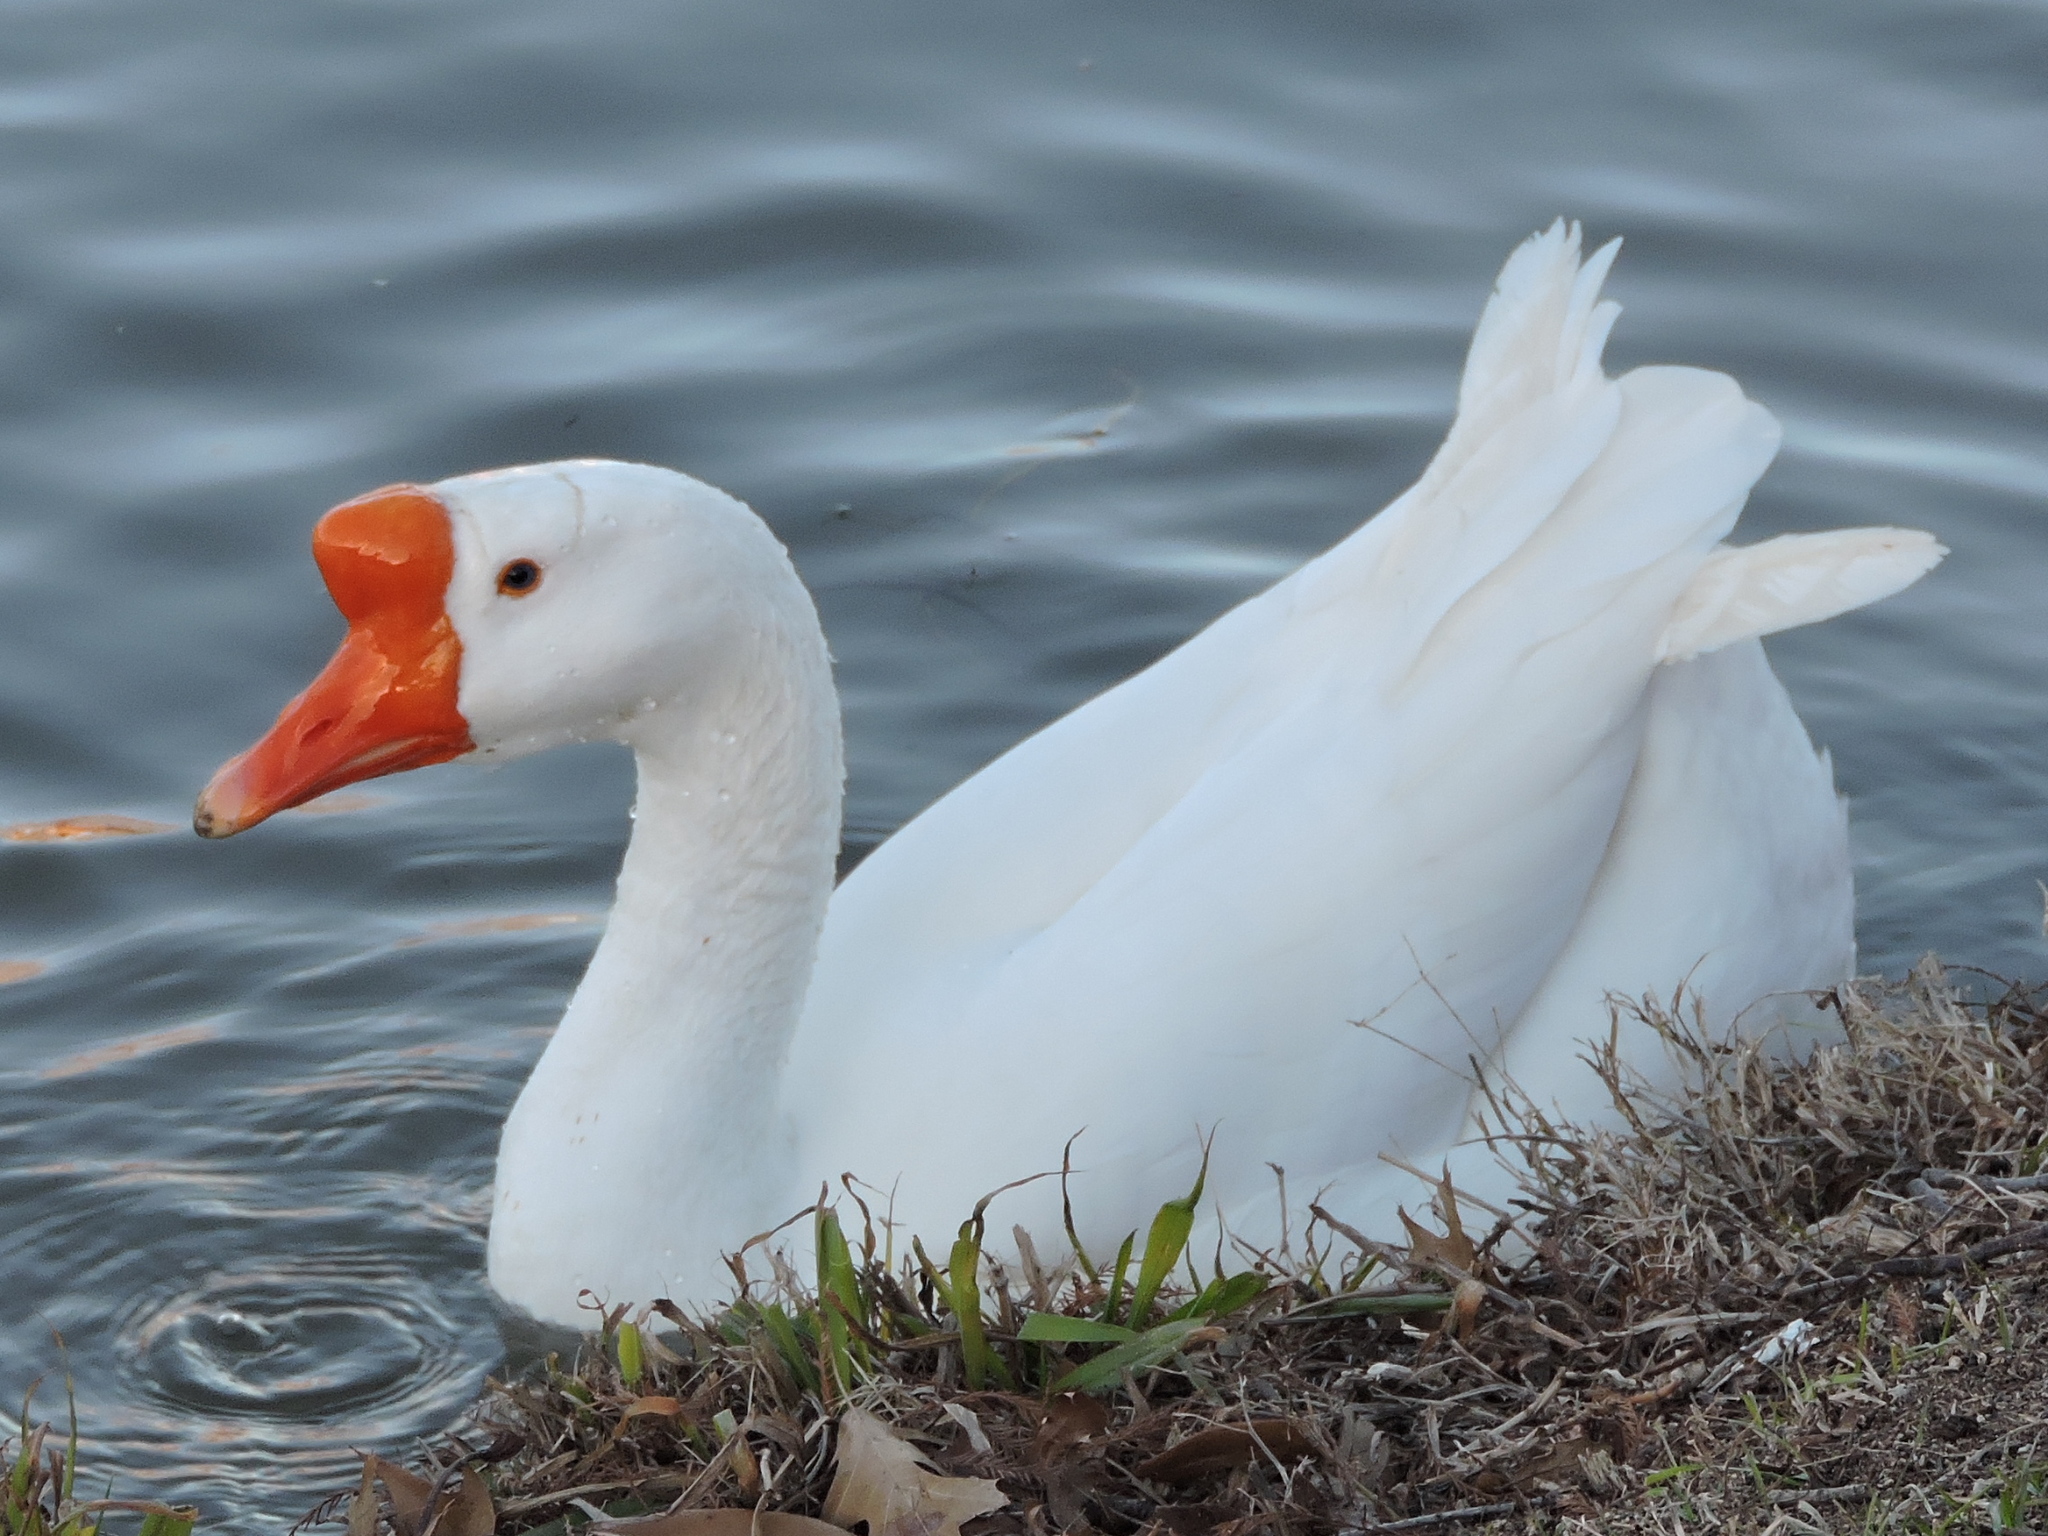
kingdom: Animalia
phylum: Chordata
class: Aves
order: Anseriformes
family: Anatidae
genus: Anser
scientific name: Anser cygnoides
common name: Swan goose
